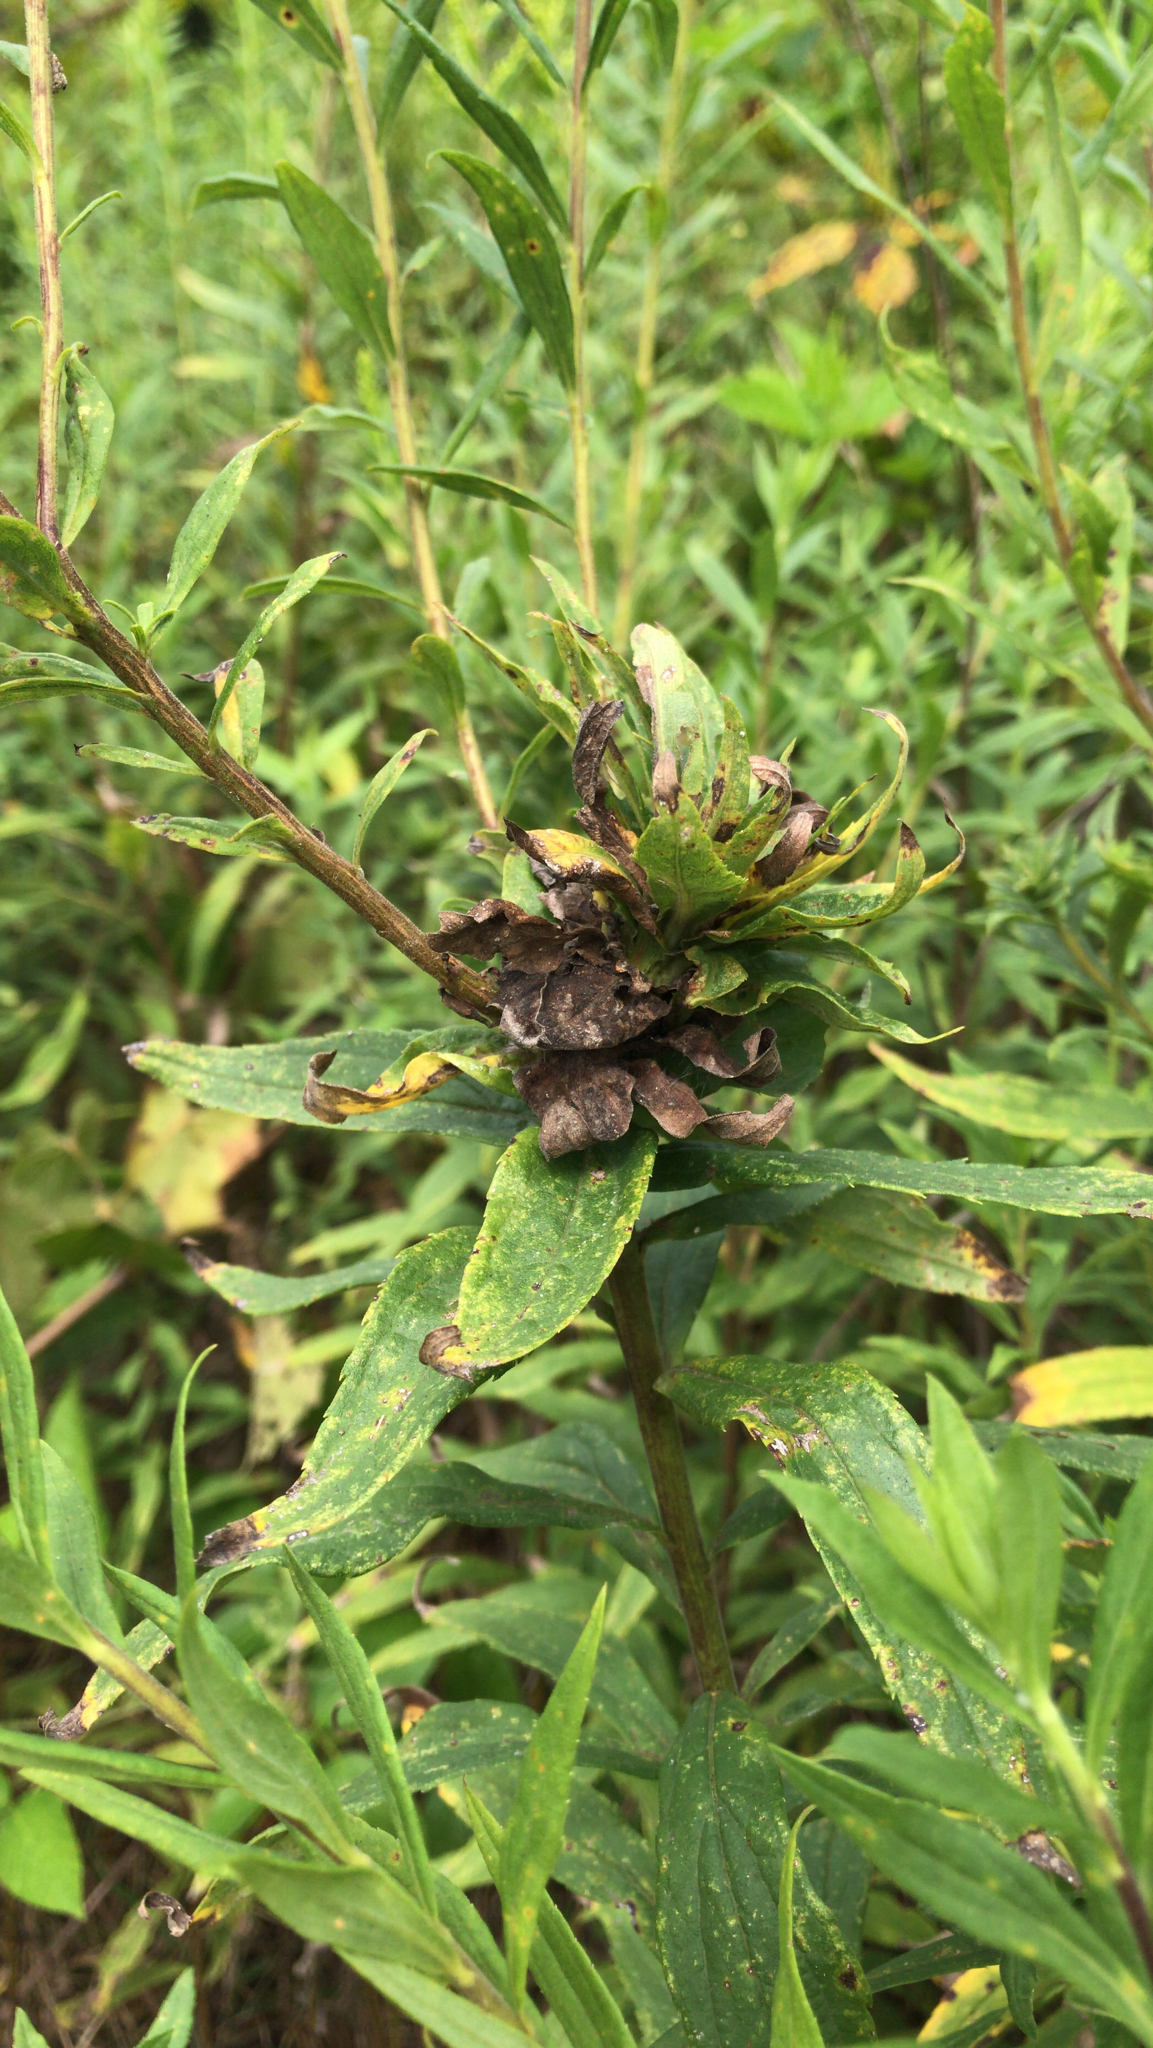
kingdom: Animalia
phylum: Arthropoda
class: Insecta
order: Diptera
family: Cecidomyiidae
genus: Rhopalomyia
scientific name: Rhopalomyia solidaginis
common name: Goldenrod bunch gall midge
